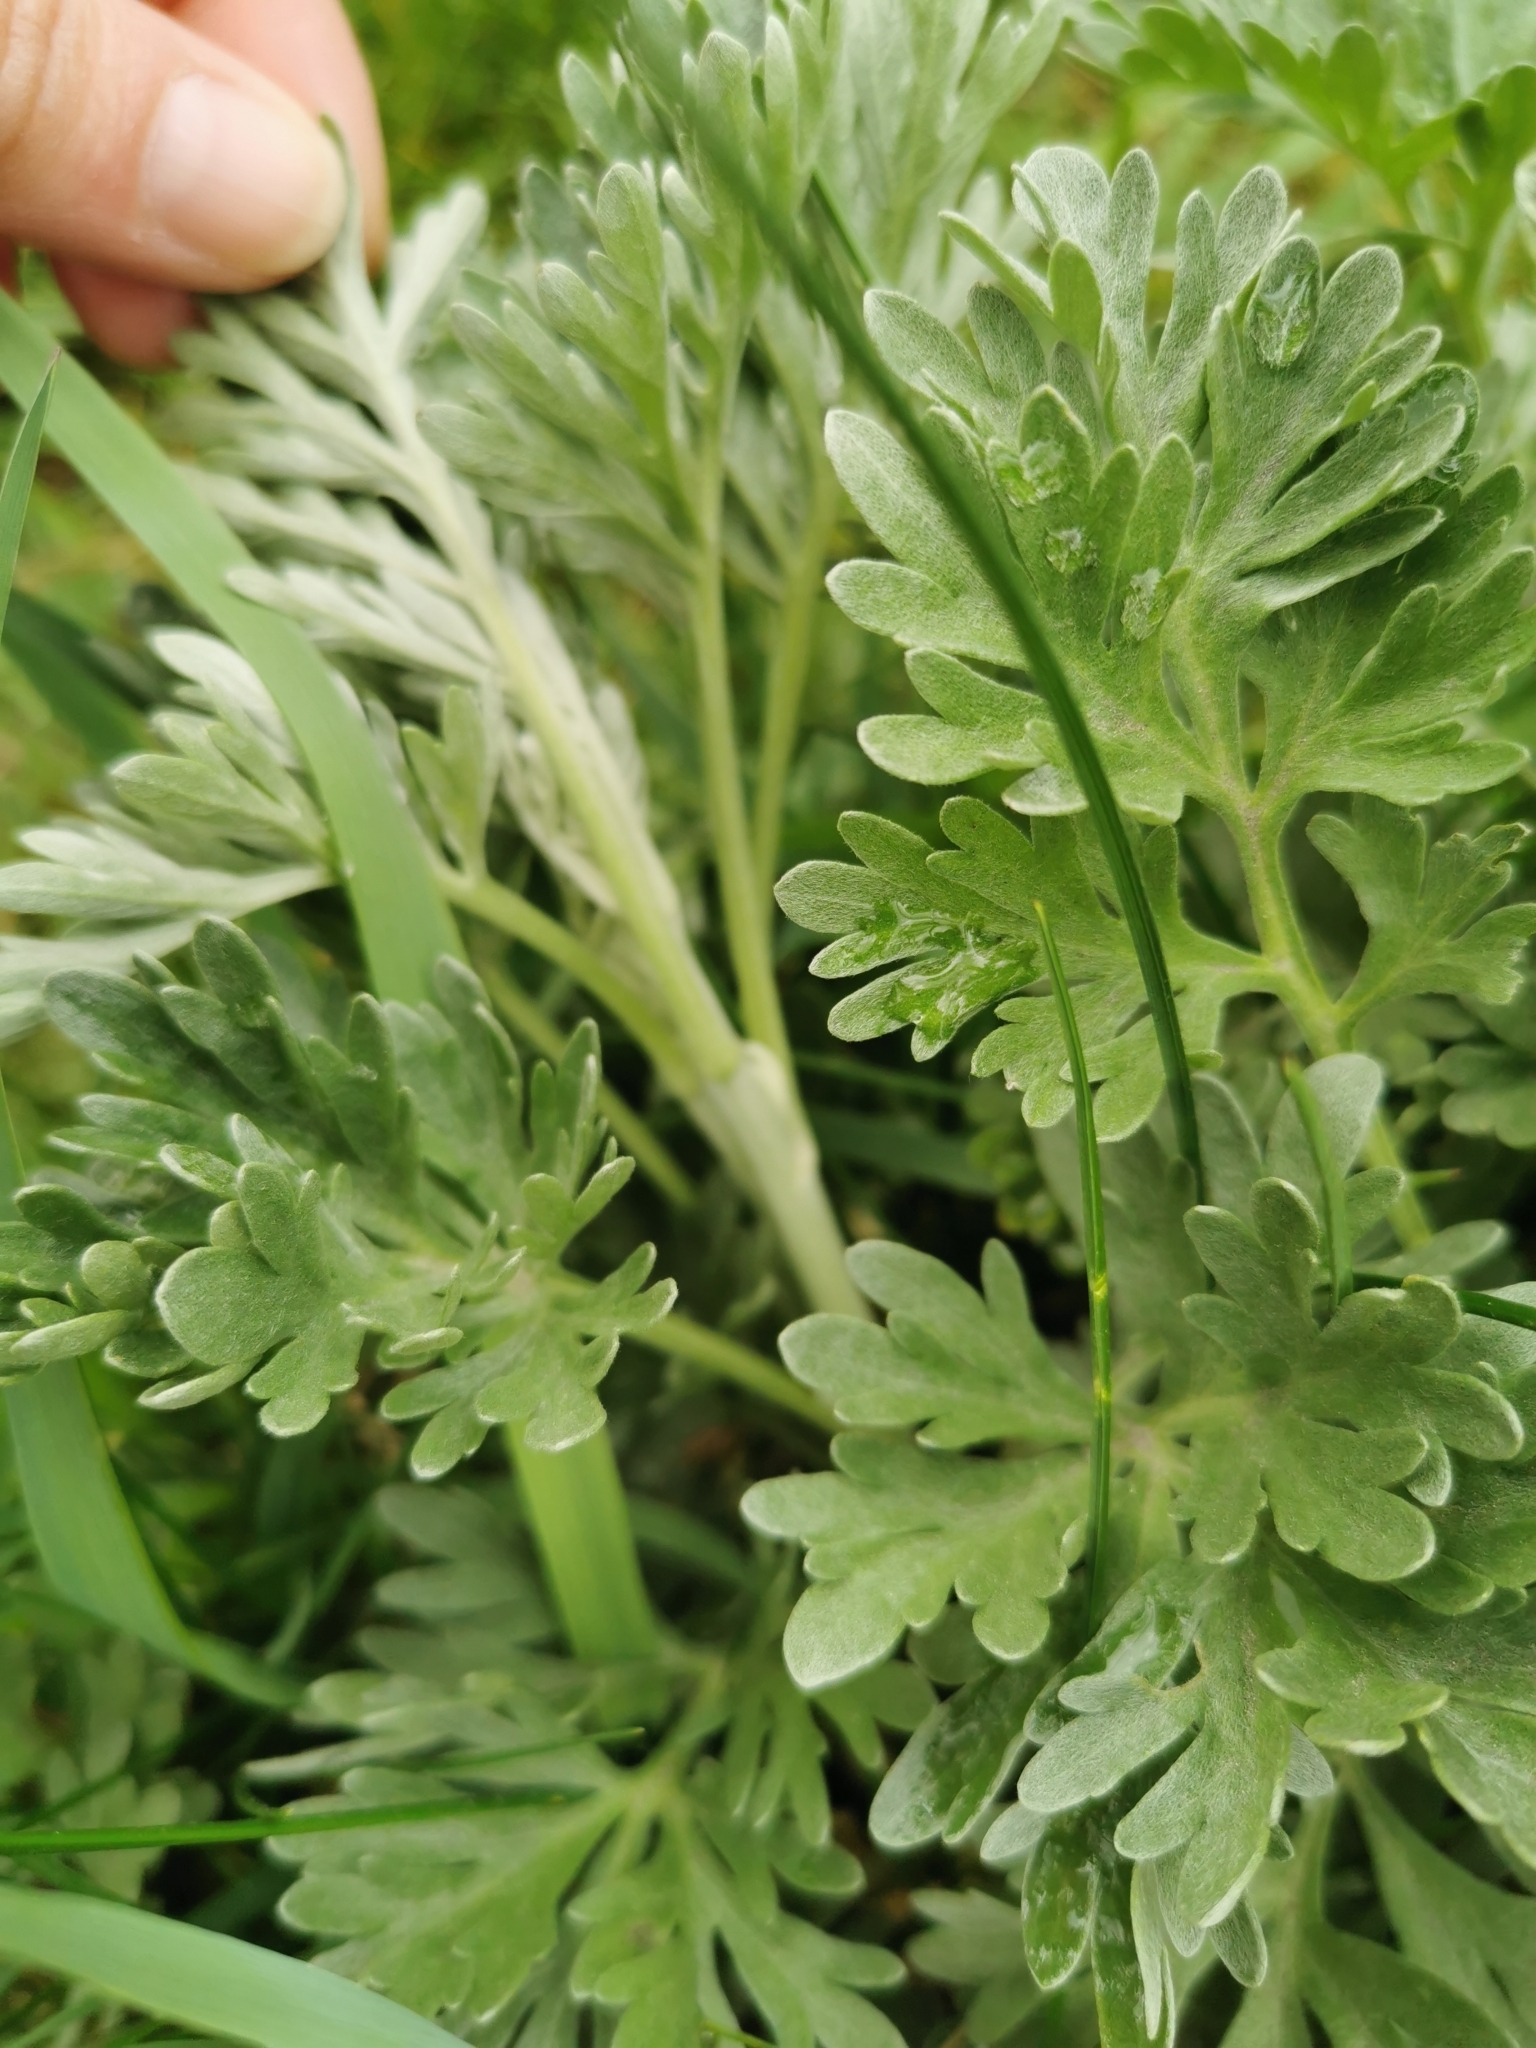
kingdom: Plantae
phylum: Tracheophyta
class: Magnoliopsida
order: Asterales
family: Asteraceae
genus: Artemisia
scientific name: Artemisia absinthium
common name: Wormwood
